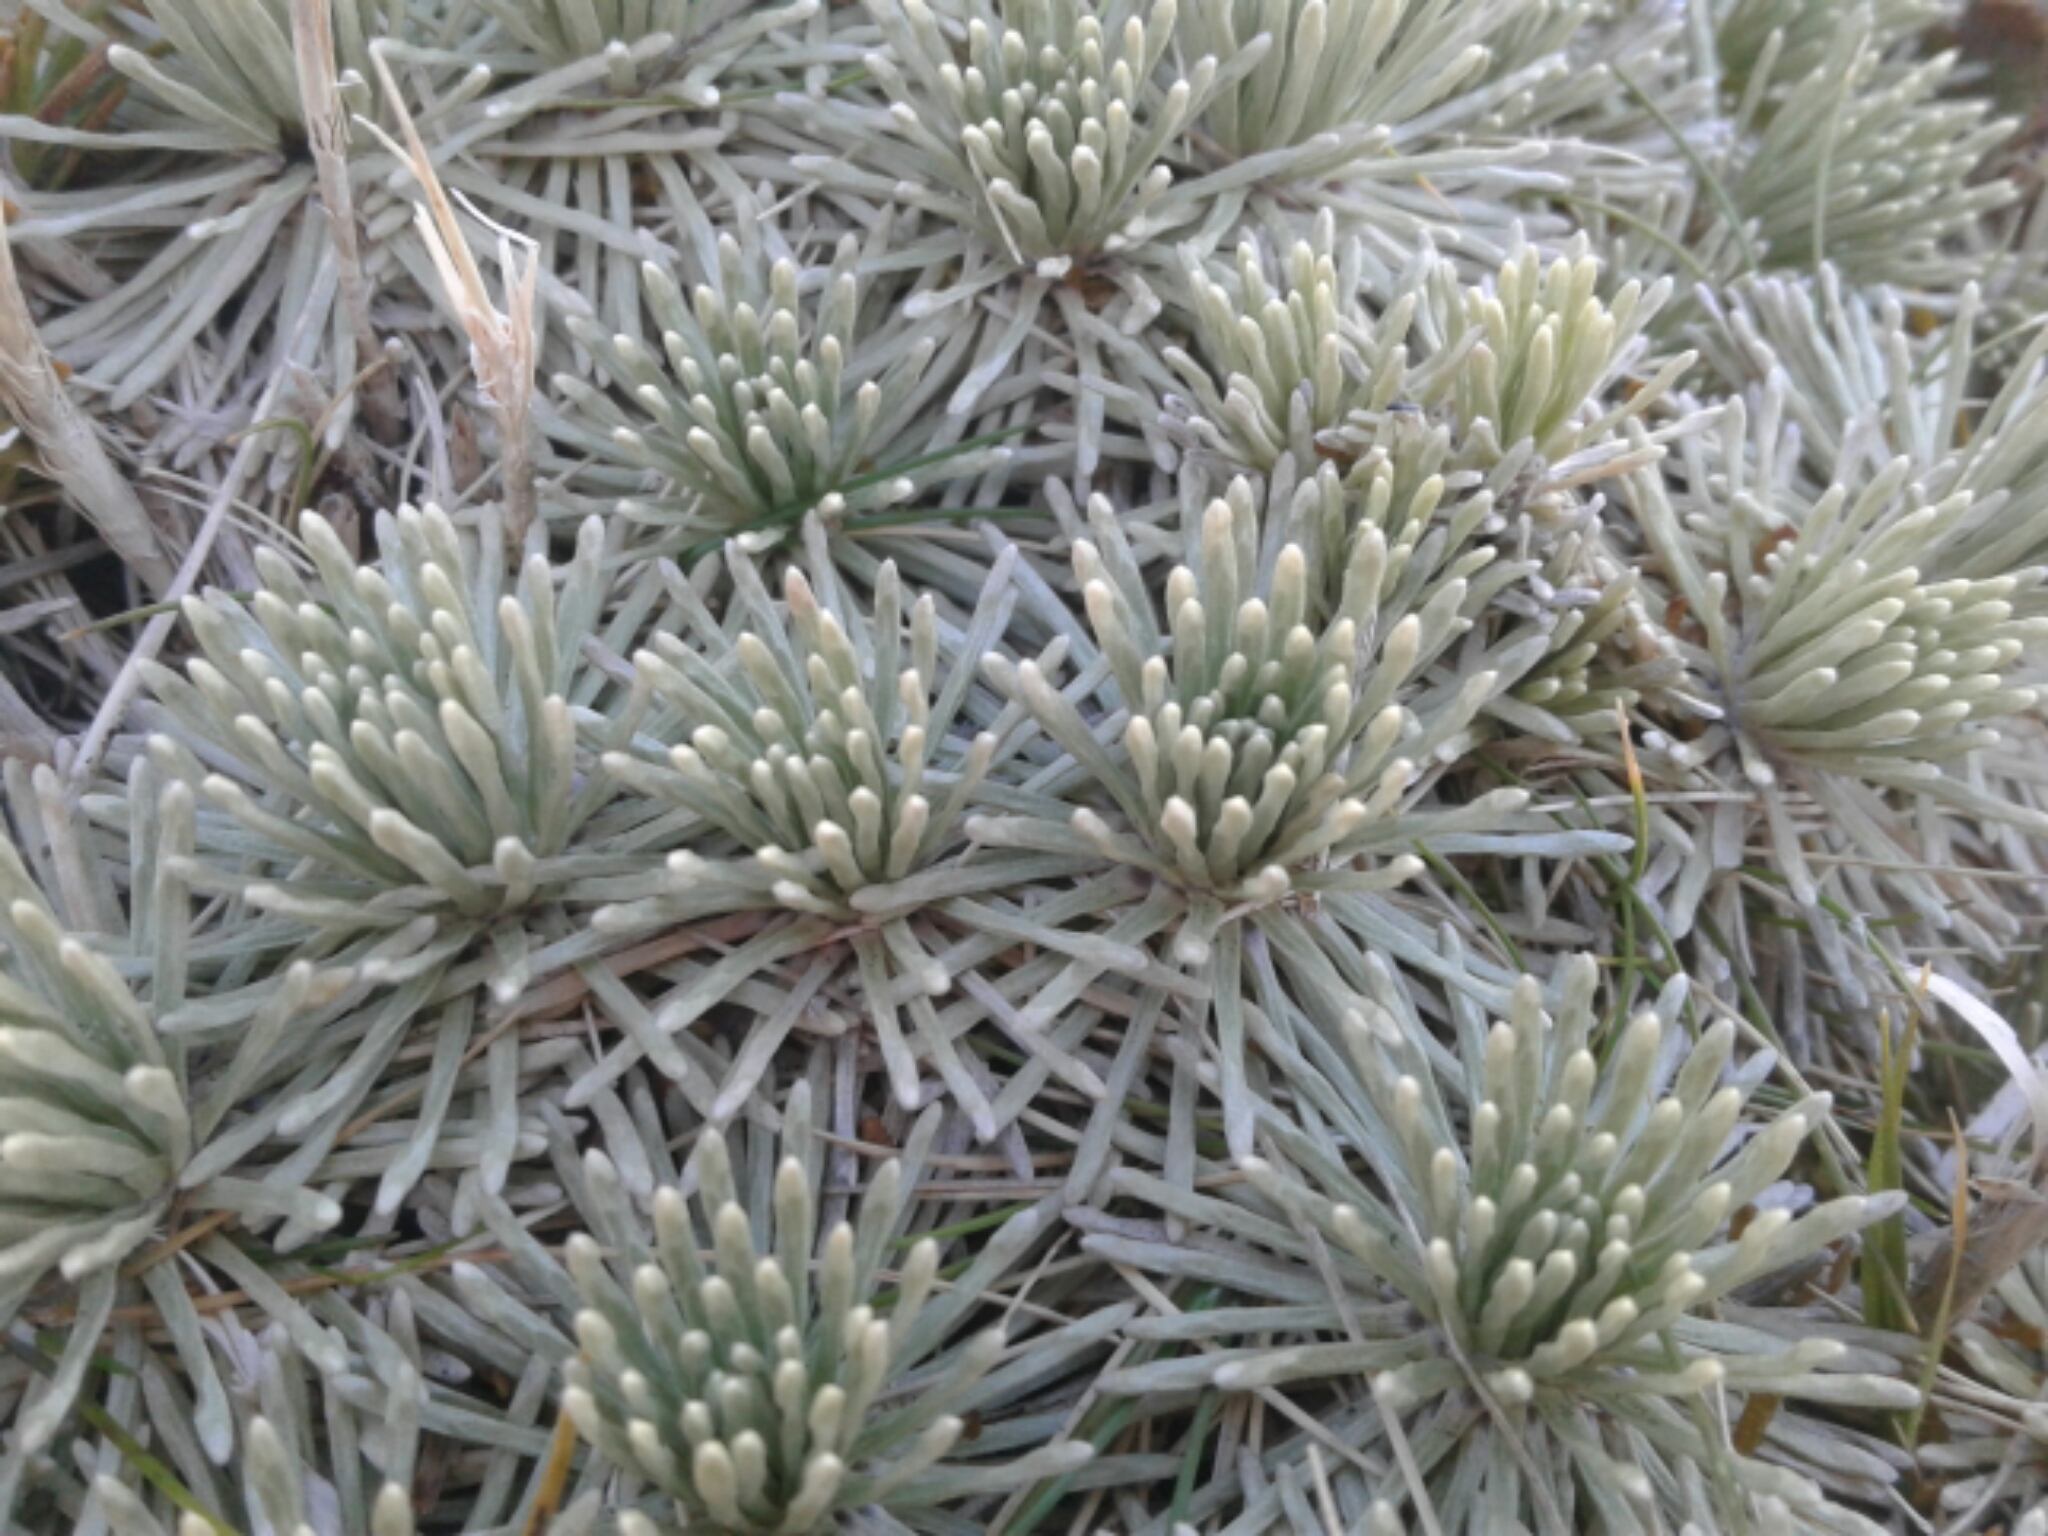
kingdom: Plantae
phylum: Tracheophyta
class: Magnoliopsida
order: Asterales
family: Asteraceae
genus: Celmisia
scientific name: Celmisia sessiliflora
